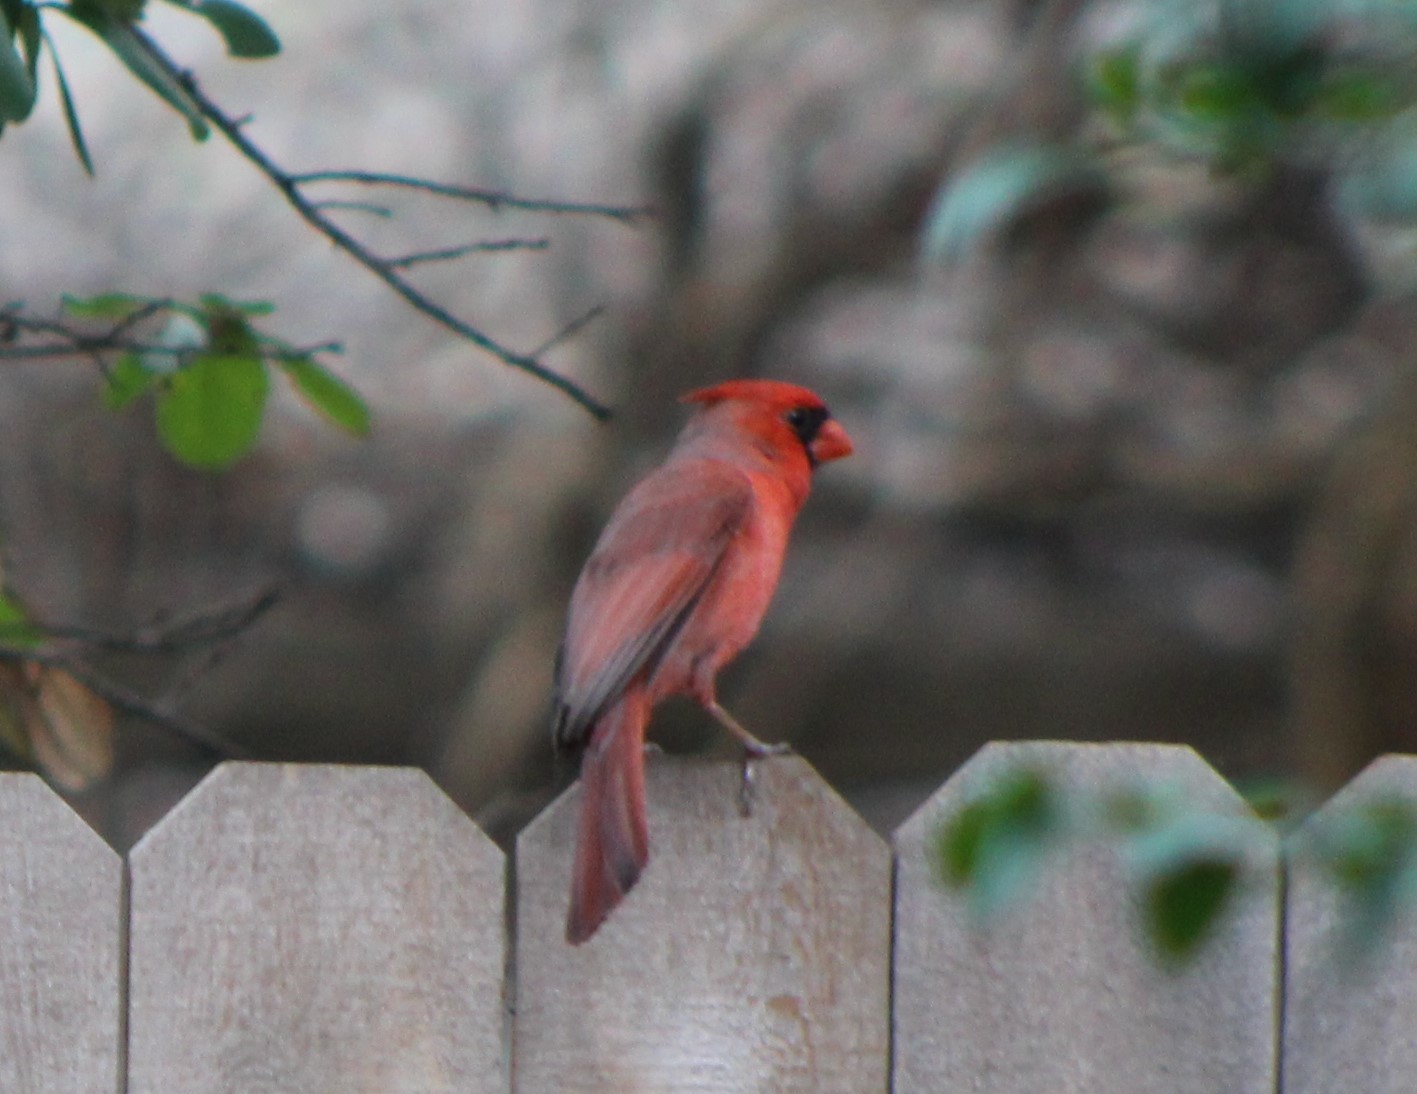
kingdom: Animalia
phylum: Chordata
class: Aves
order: Passeriformes
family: Cardinalidae
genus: Cardinalis
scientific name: Cardinalis cardinalis
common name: Northern cardinal
